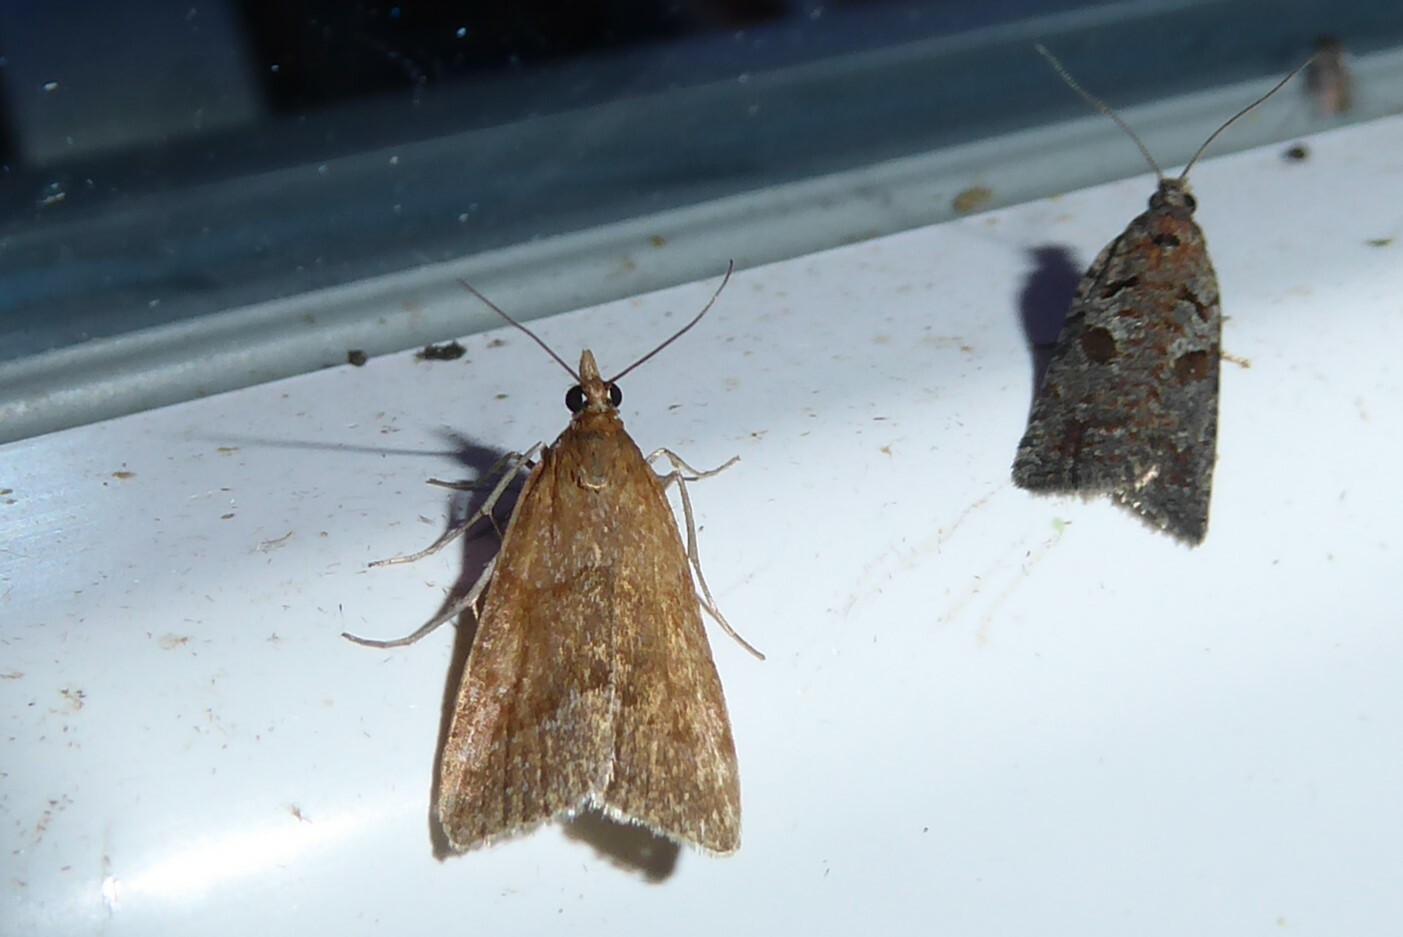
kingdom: Animalia
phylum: Arthropoda
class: Insecta
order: Lepidoptera
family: Crambidae
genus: Eudonia
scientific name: Eudonia feredayi
